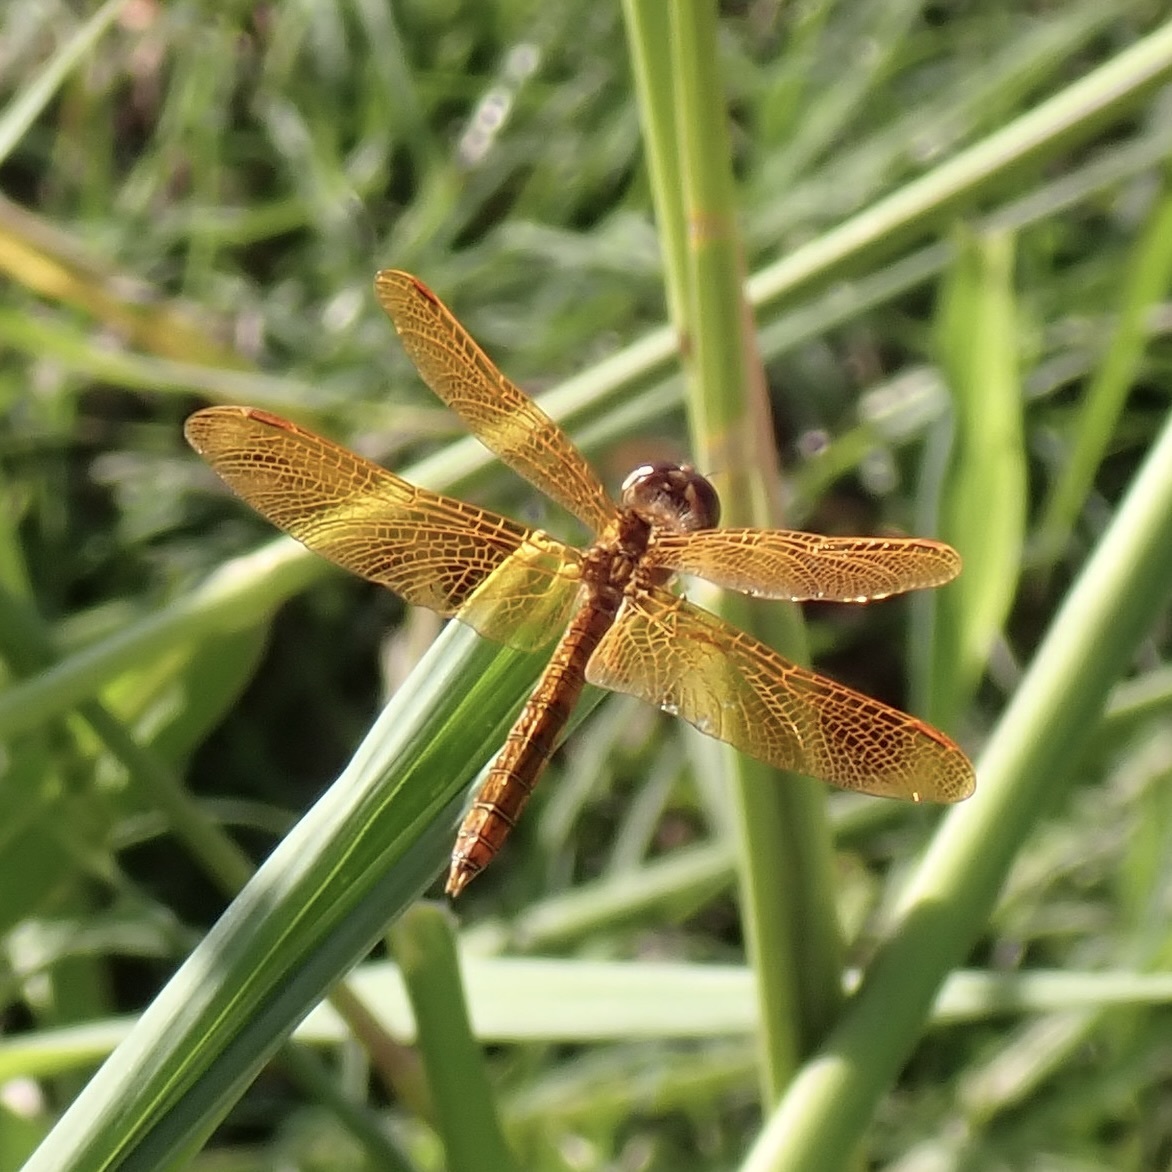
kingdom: Animalia
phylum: Arthropoda
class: Insecta
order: Odonata
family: Libellulidae
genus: Perithemis
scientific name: Perithemis intensa
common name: Mexican amberwing
